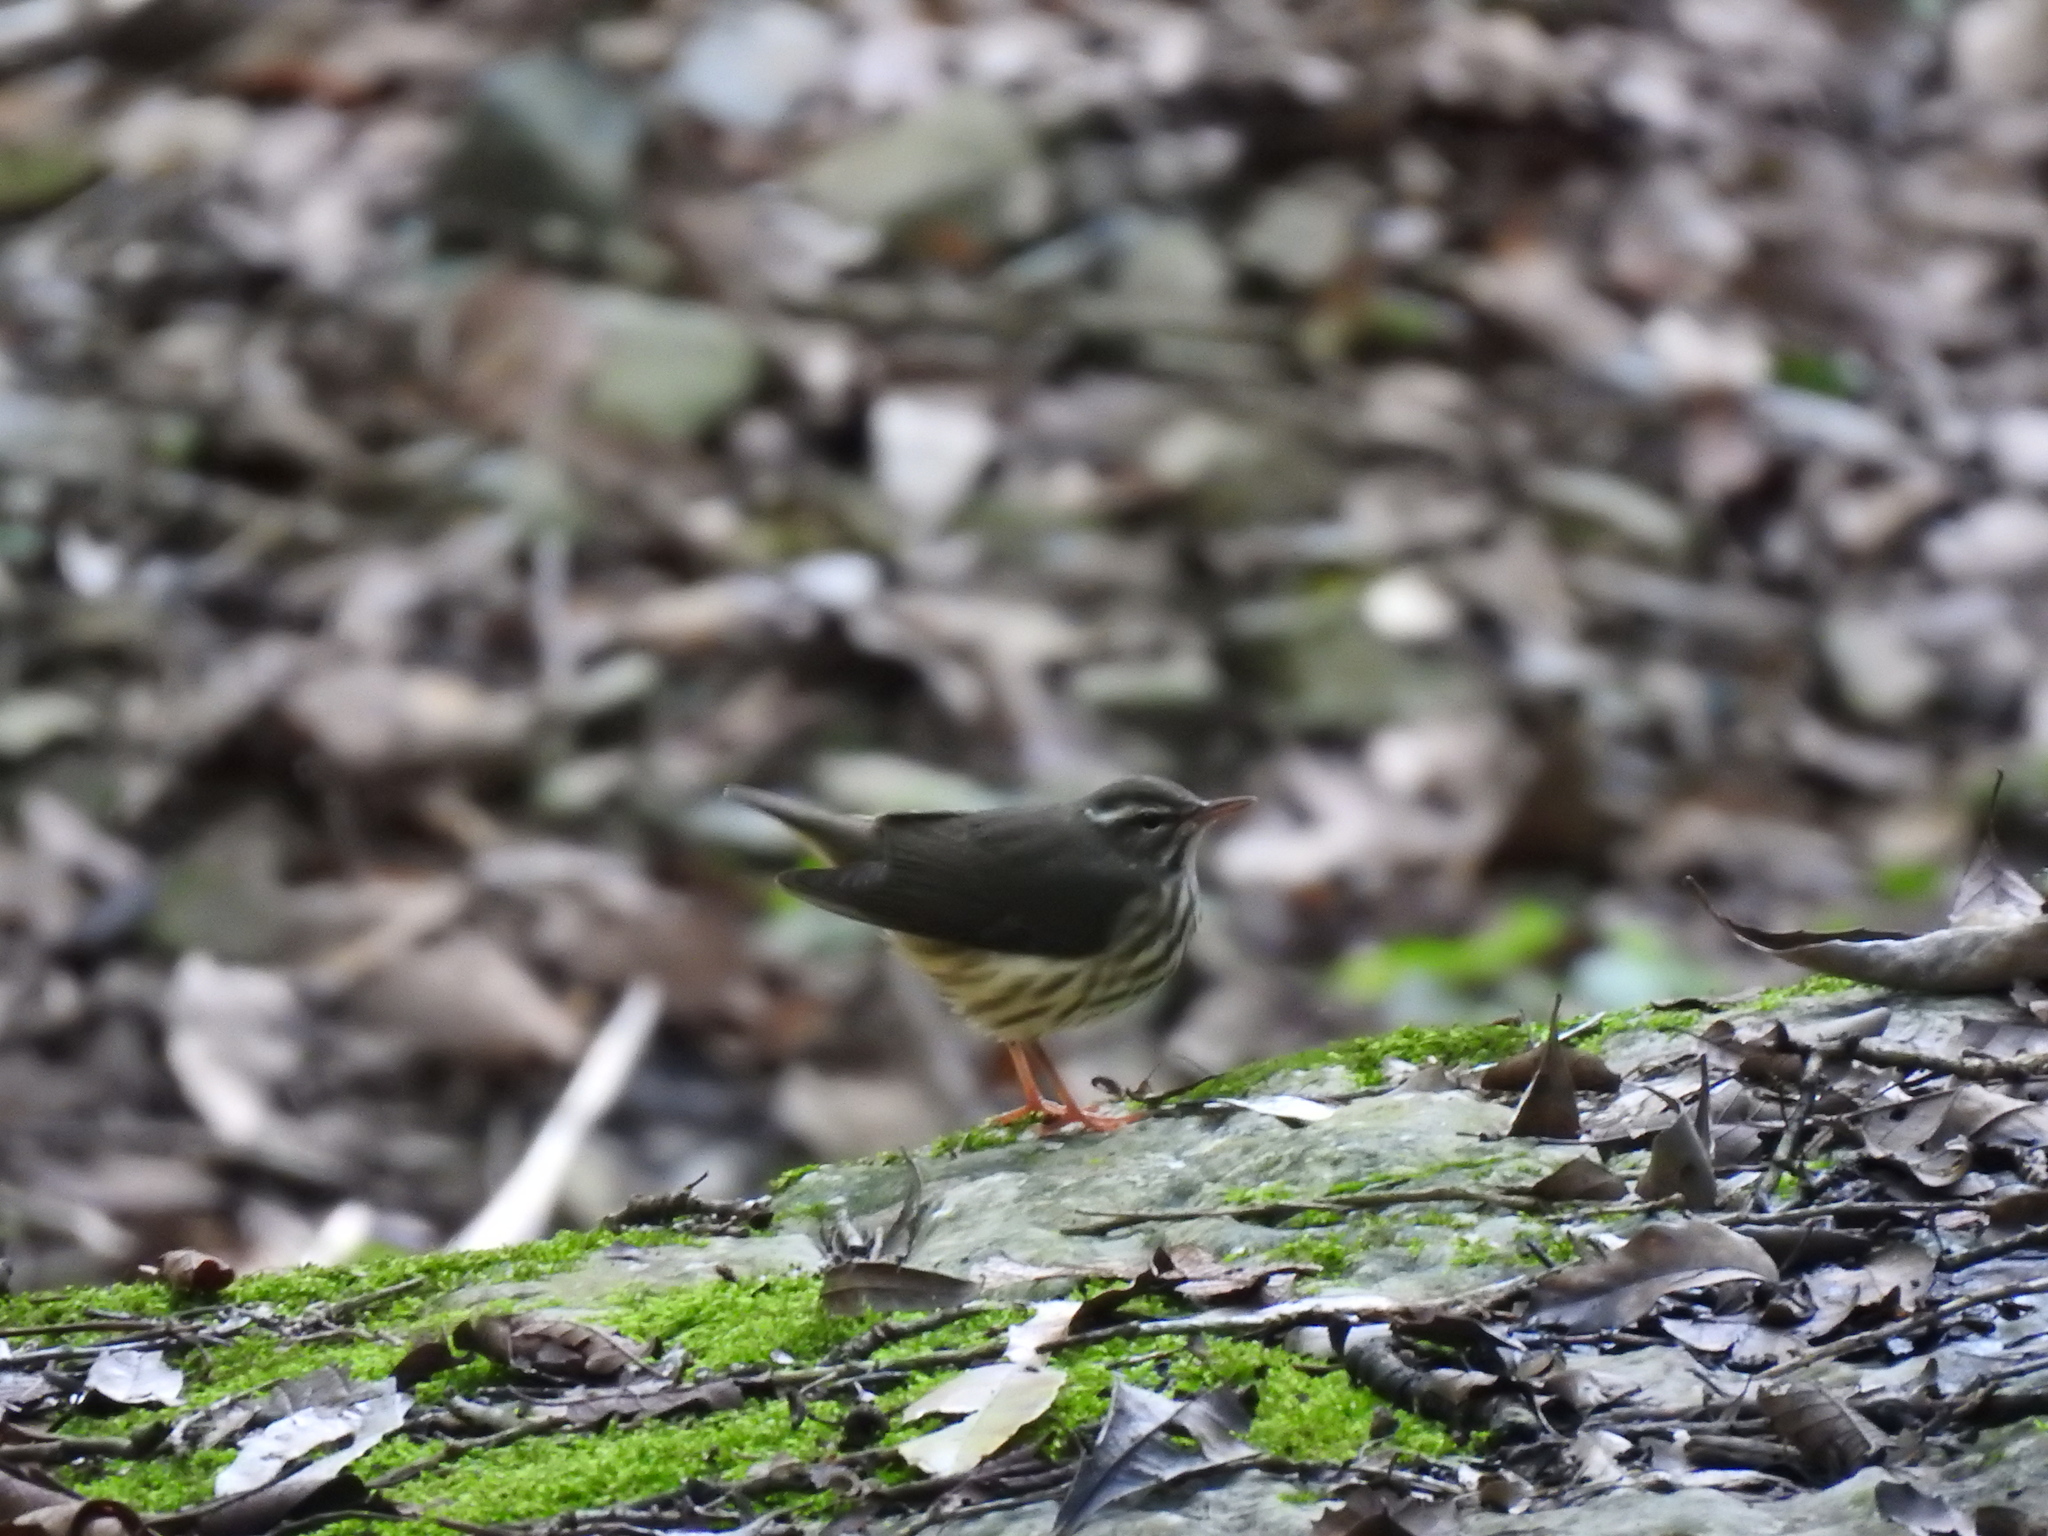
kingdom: Animalia
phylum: Chordata
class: Aves
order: Passeriformes
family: Parulidae
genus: Parkesia
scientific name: Parkesia motacilla
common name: Louisiana waterthrush
